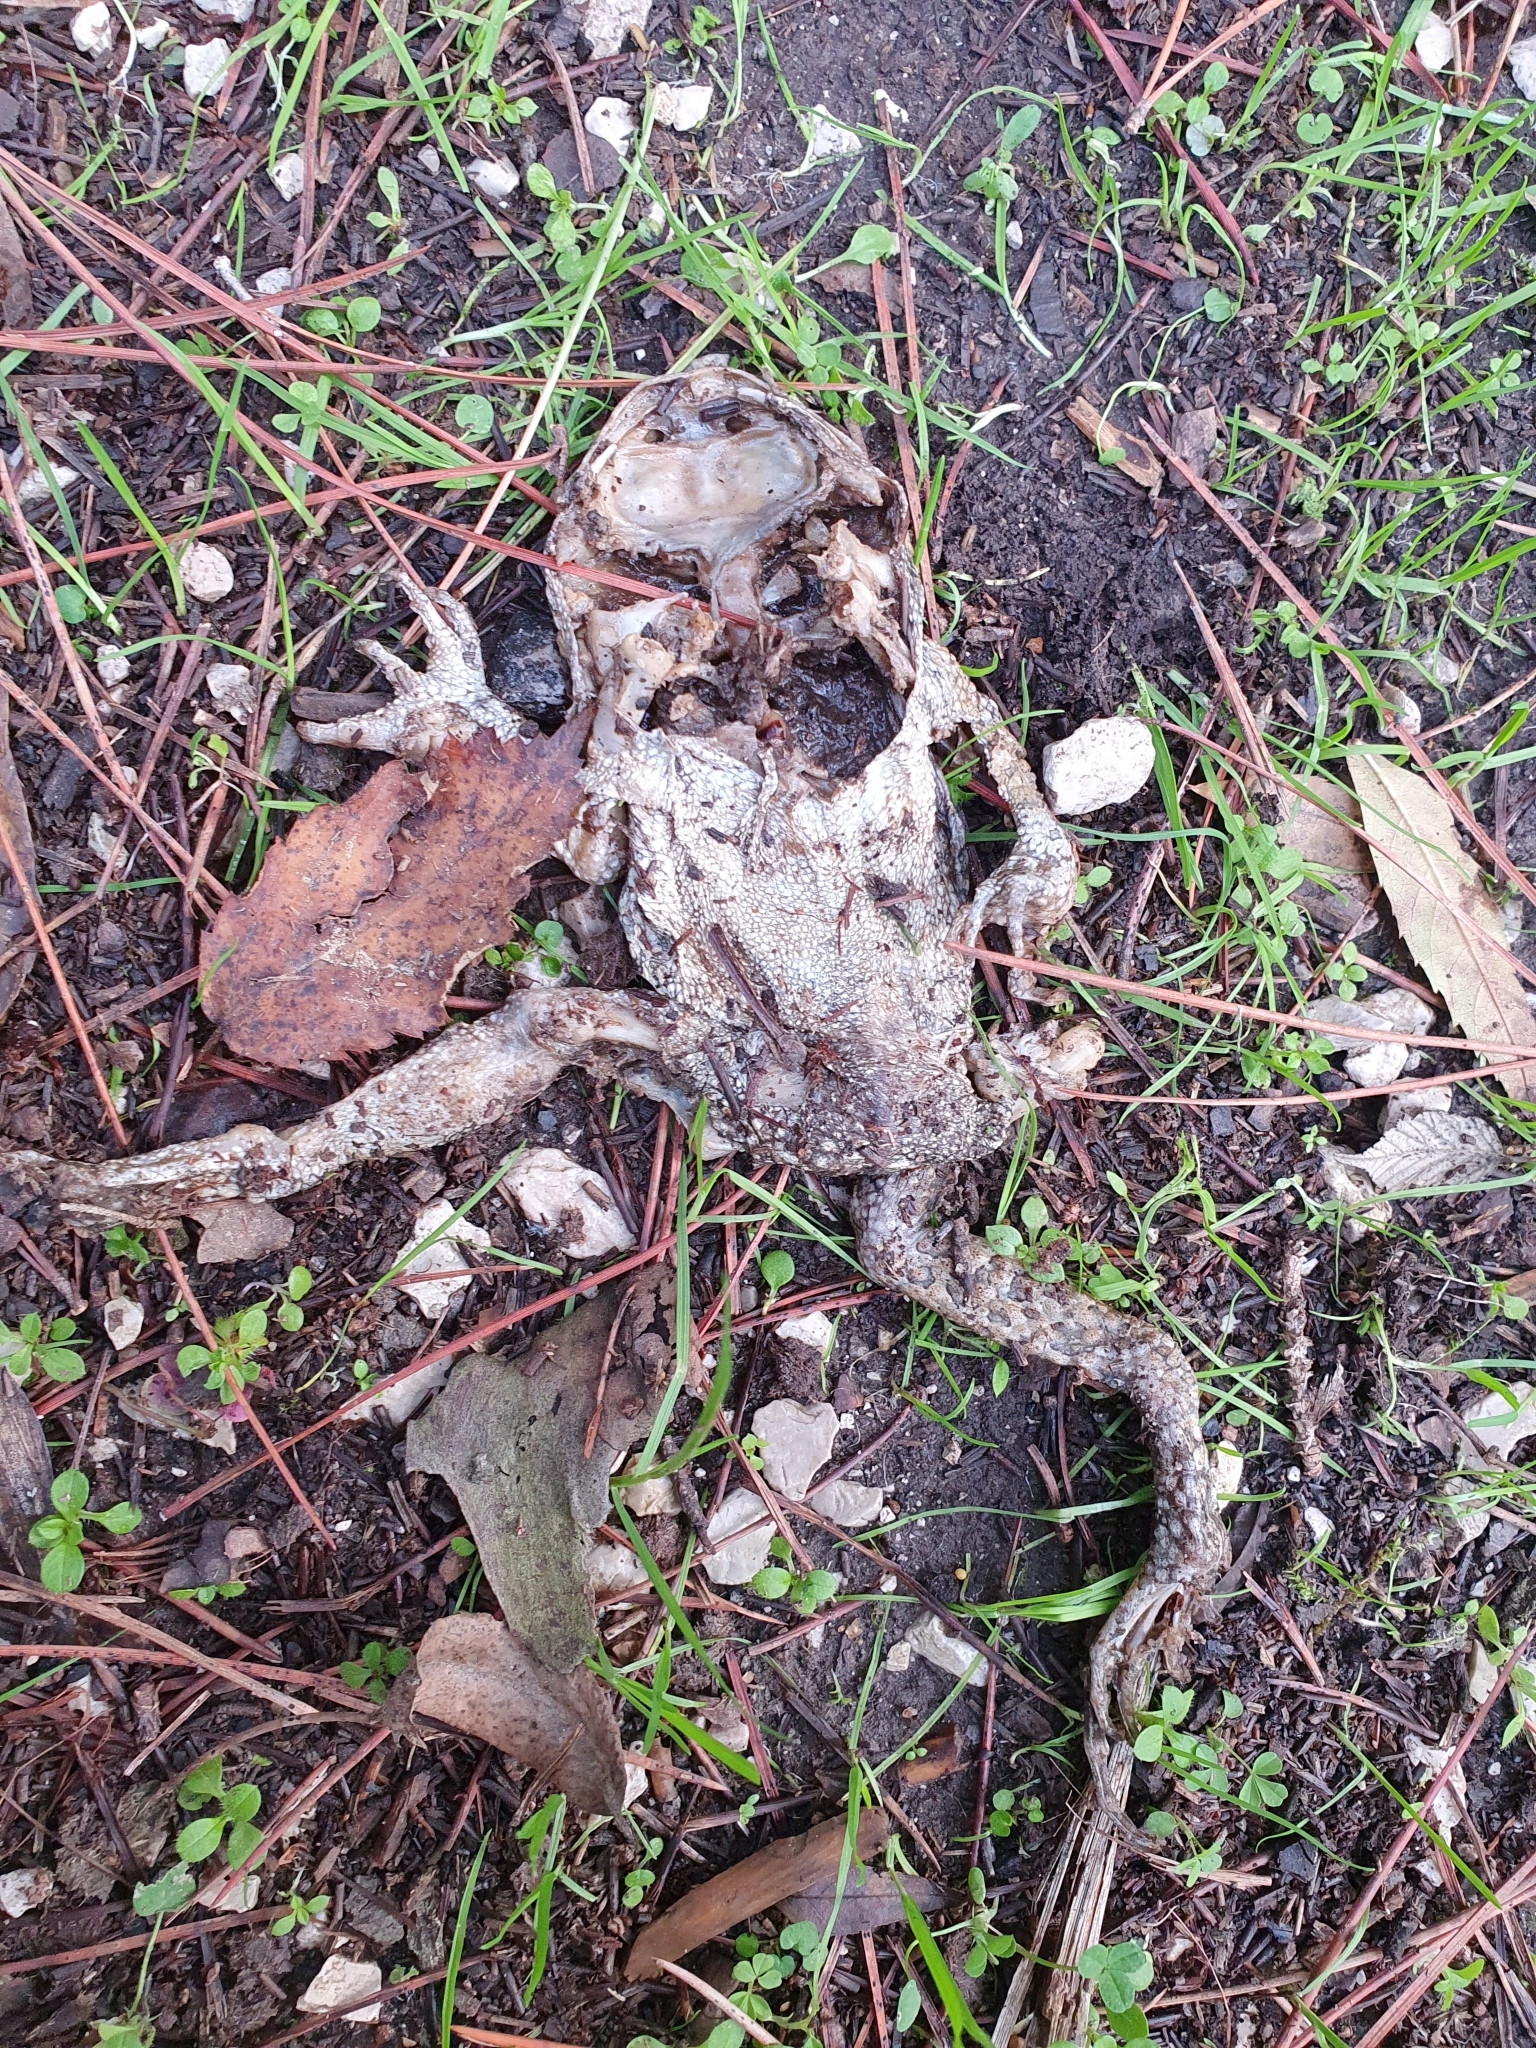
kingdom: Animalia
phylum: Chordata
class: Amphibia
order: Anura
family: Bufonidae
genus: Sclerophrys
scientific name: Sclerophrys mauritanica
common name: Berber toad
